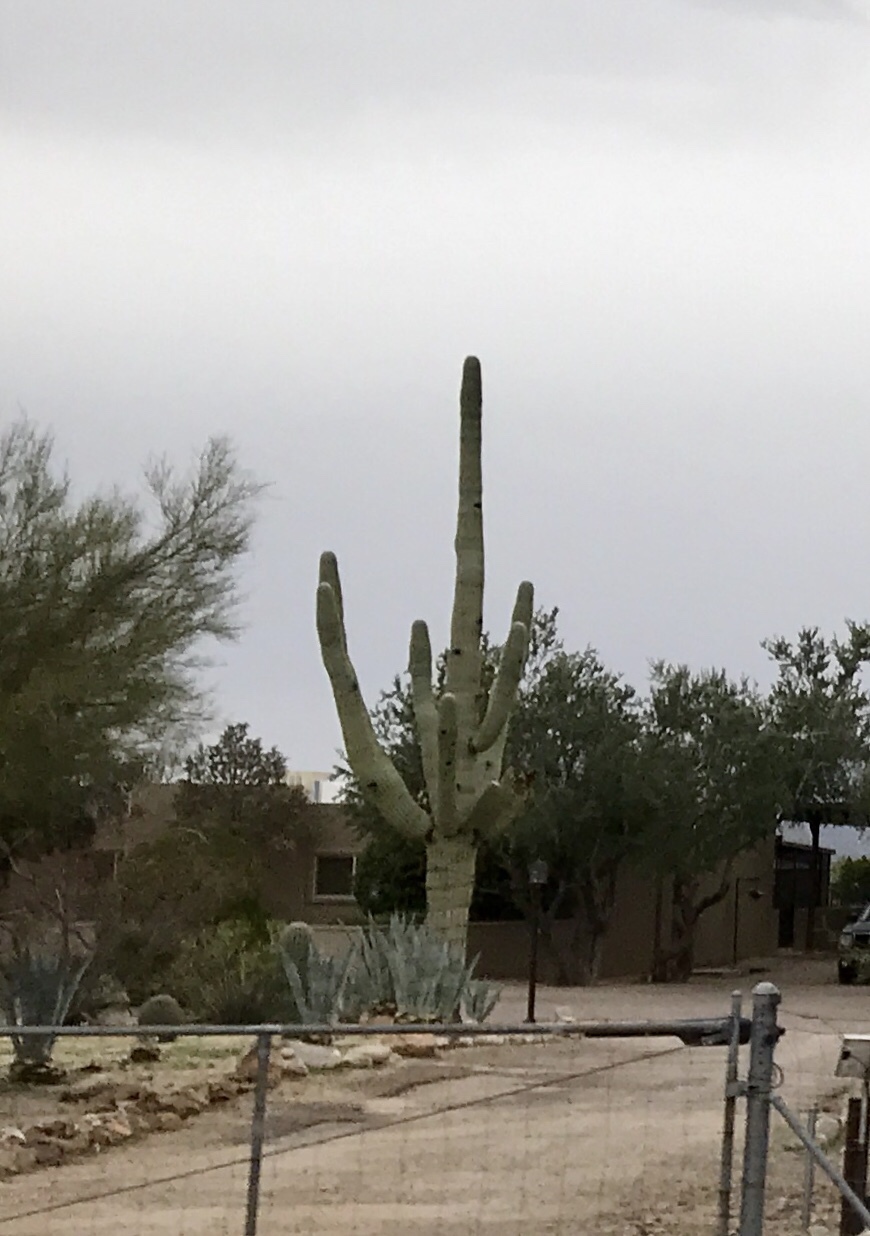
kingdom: Plantae
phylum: Tracheophyta
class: Magnoliopsida
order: Caryophyllales
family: Cactaceae
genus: Carnegiea
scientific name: Carnegiea gigantea
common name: Saguaro
